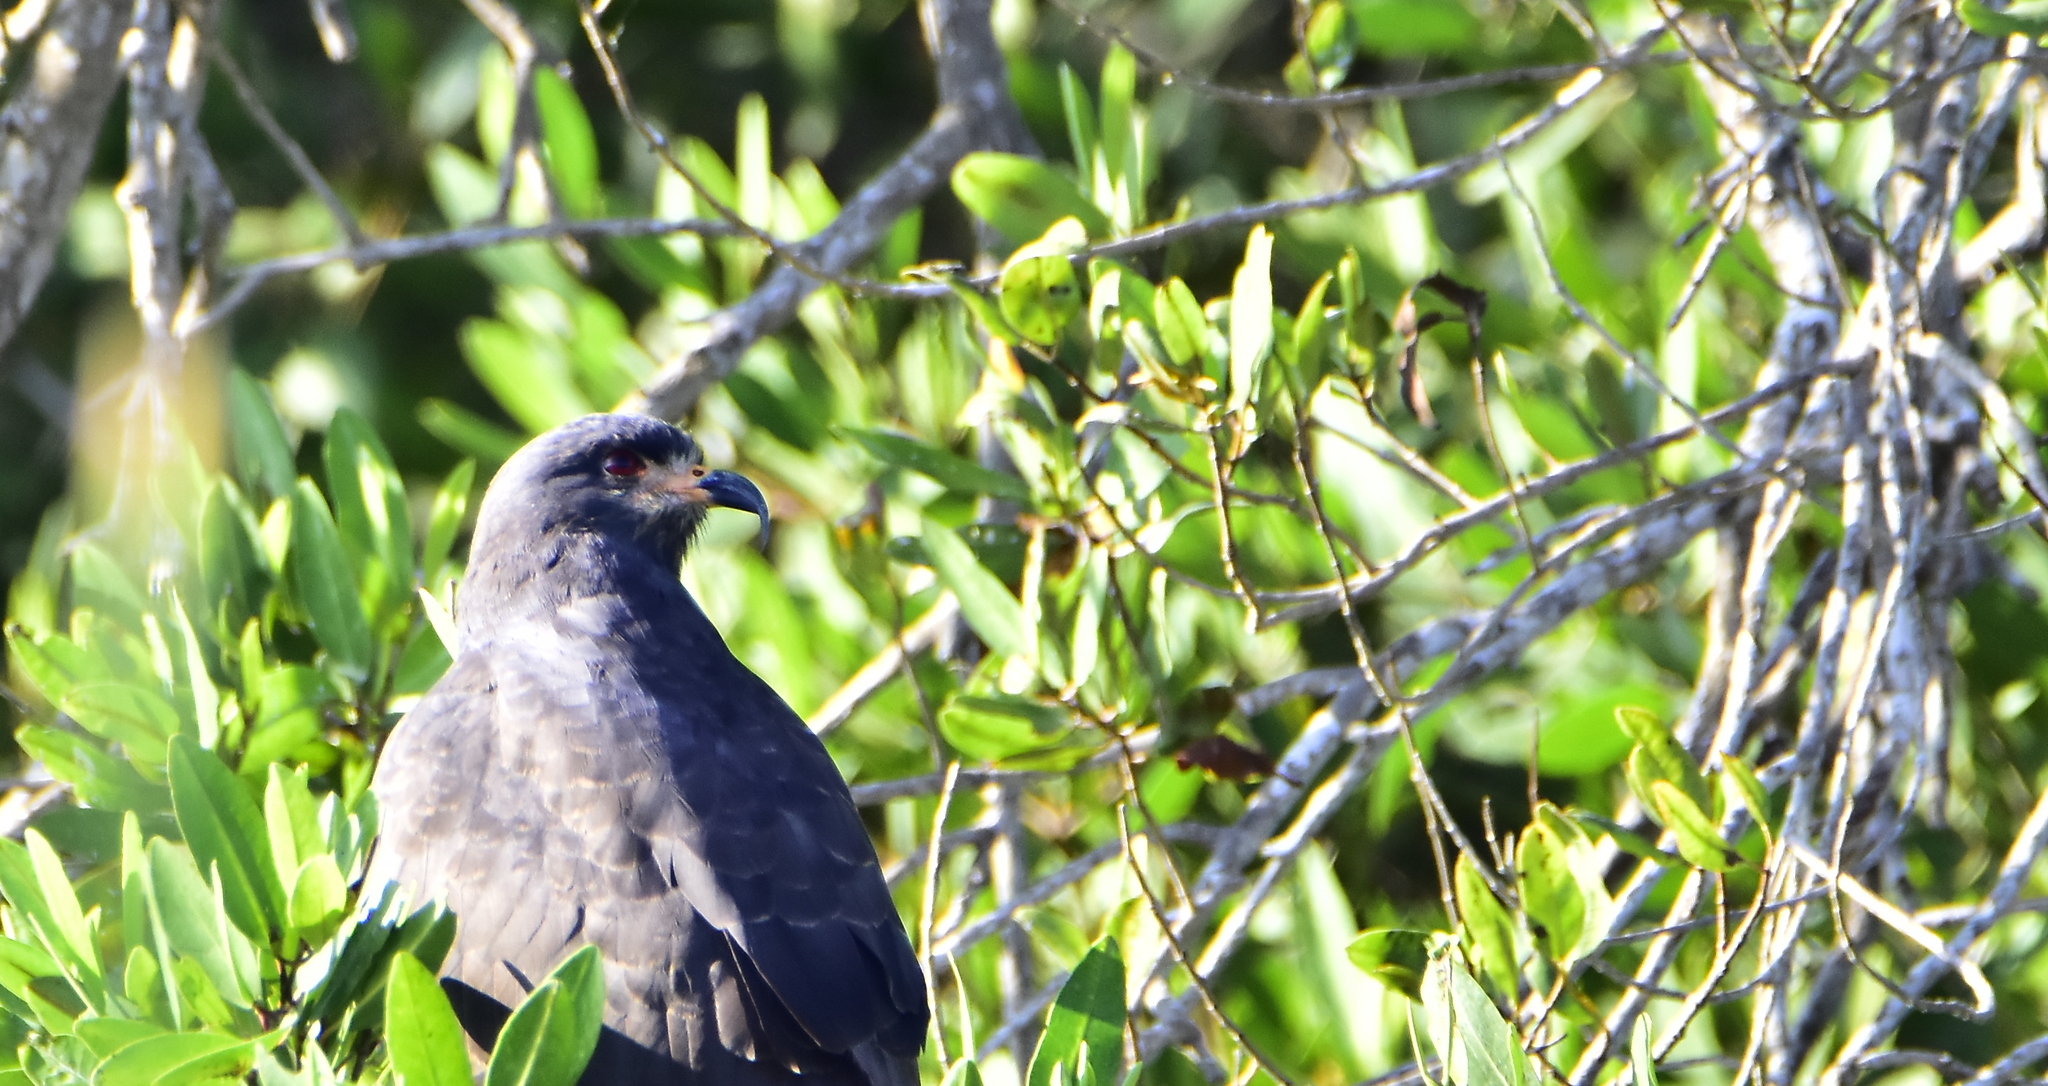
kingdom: Animalia
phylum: Chordata
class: Aves
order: Accipitriformes
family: Accipitridae
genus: Rostrhamus
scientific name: Rostrhamus sociabilis
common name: Snail kite
